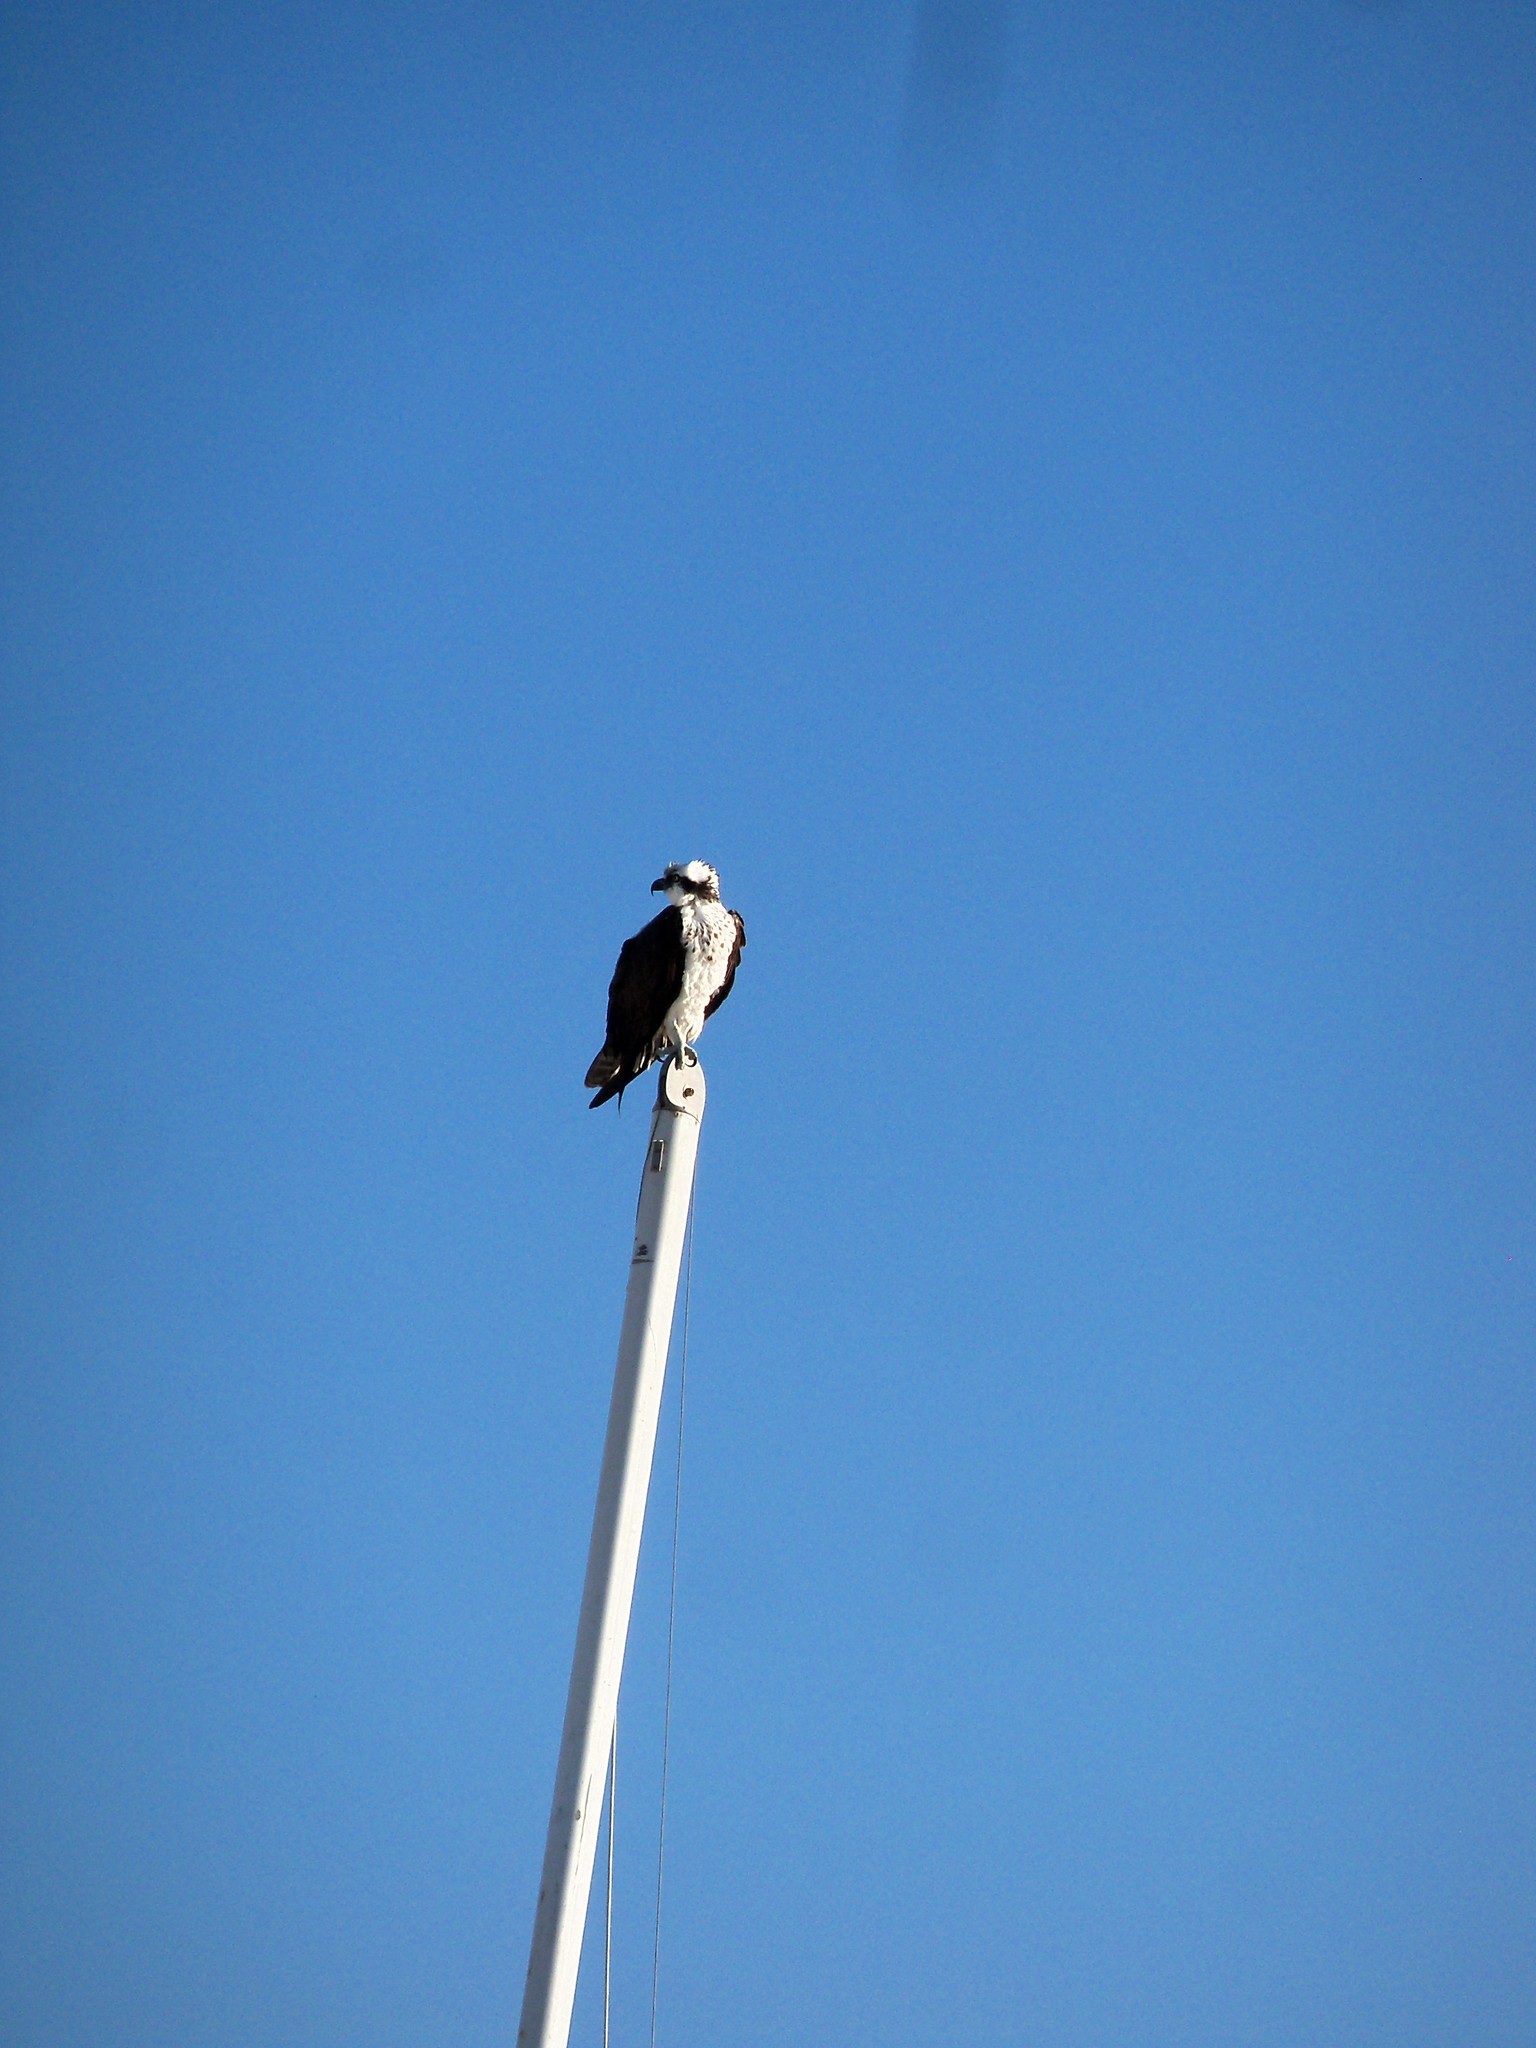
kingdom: Animalia
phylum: Chordata
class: Aves
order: Accipitriformes
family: Pandionidae
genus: Pandion
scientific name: Pandion haliaetus
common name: Osprey
